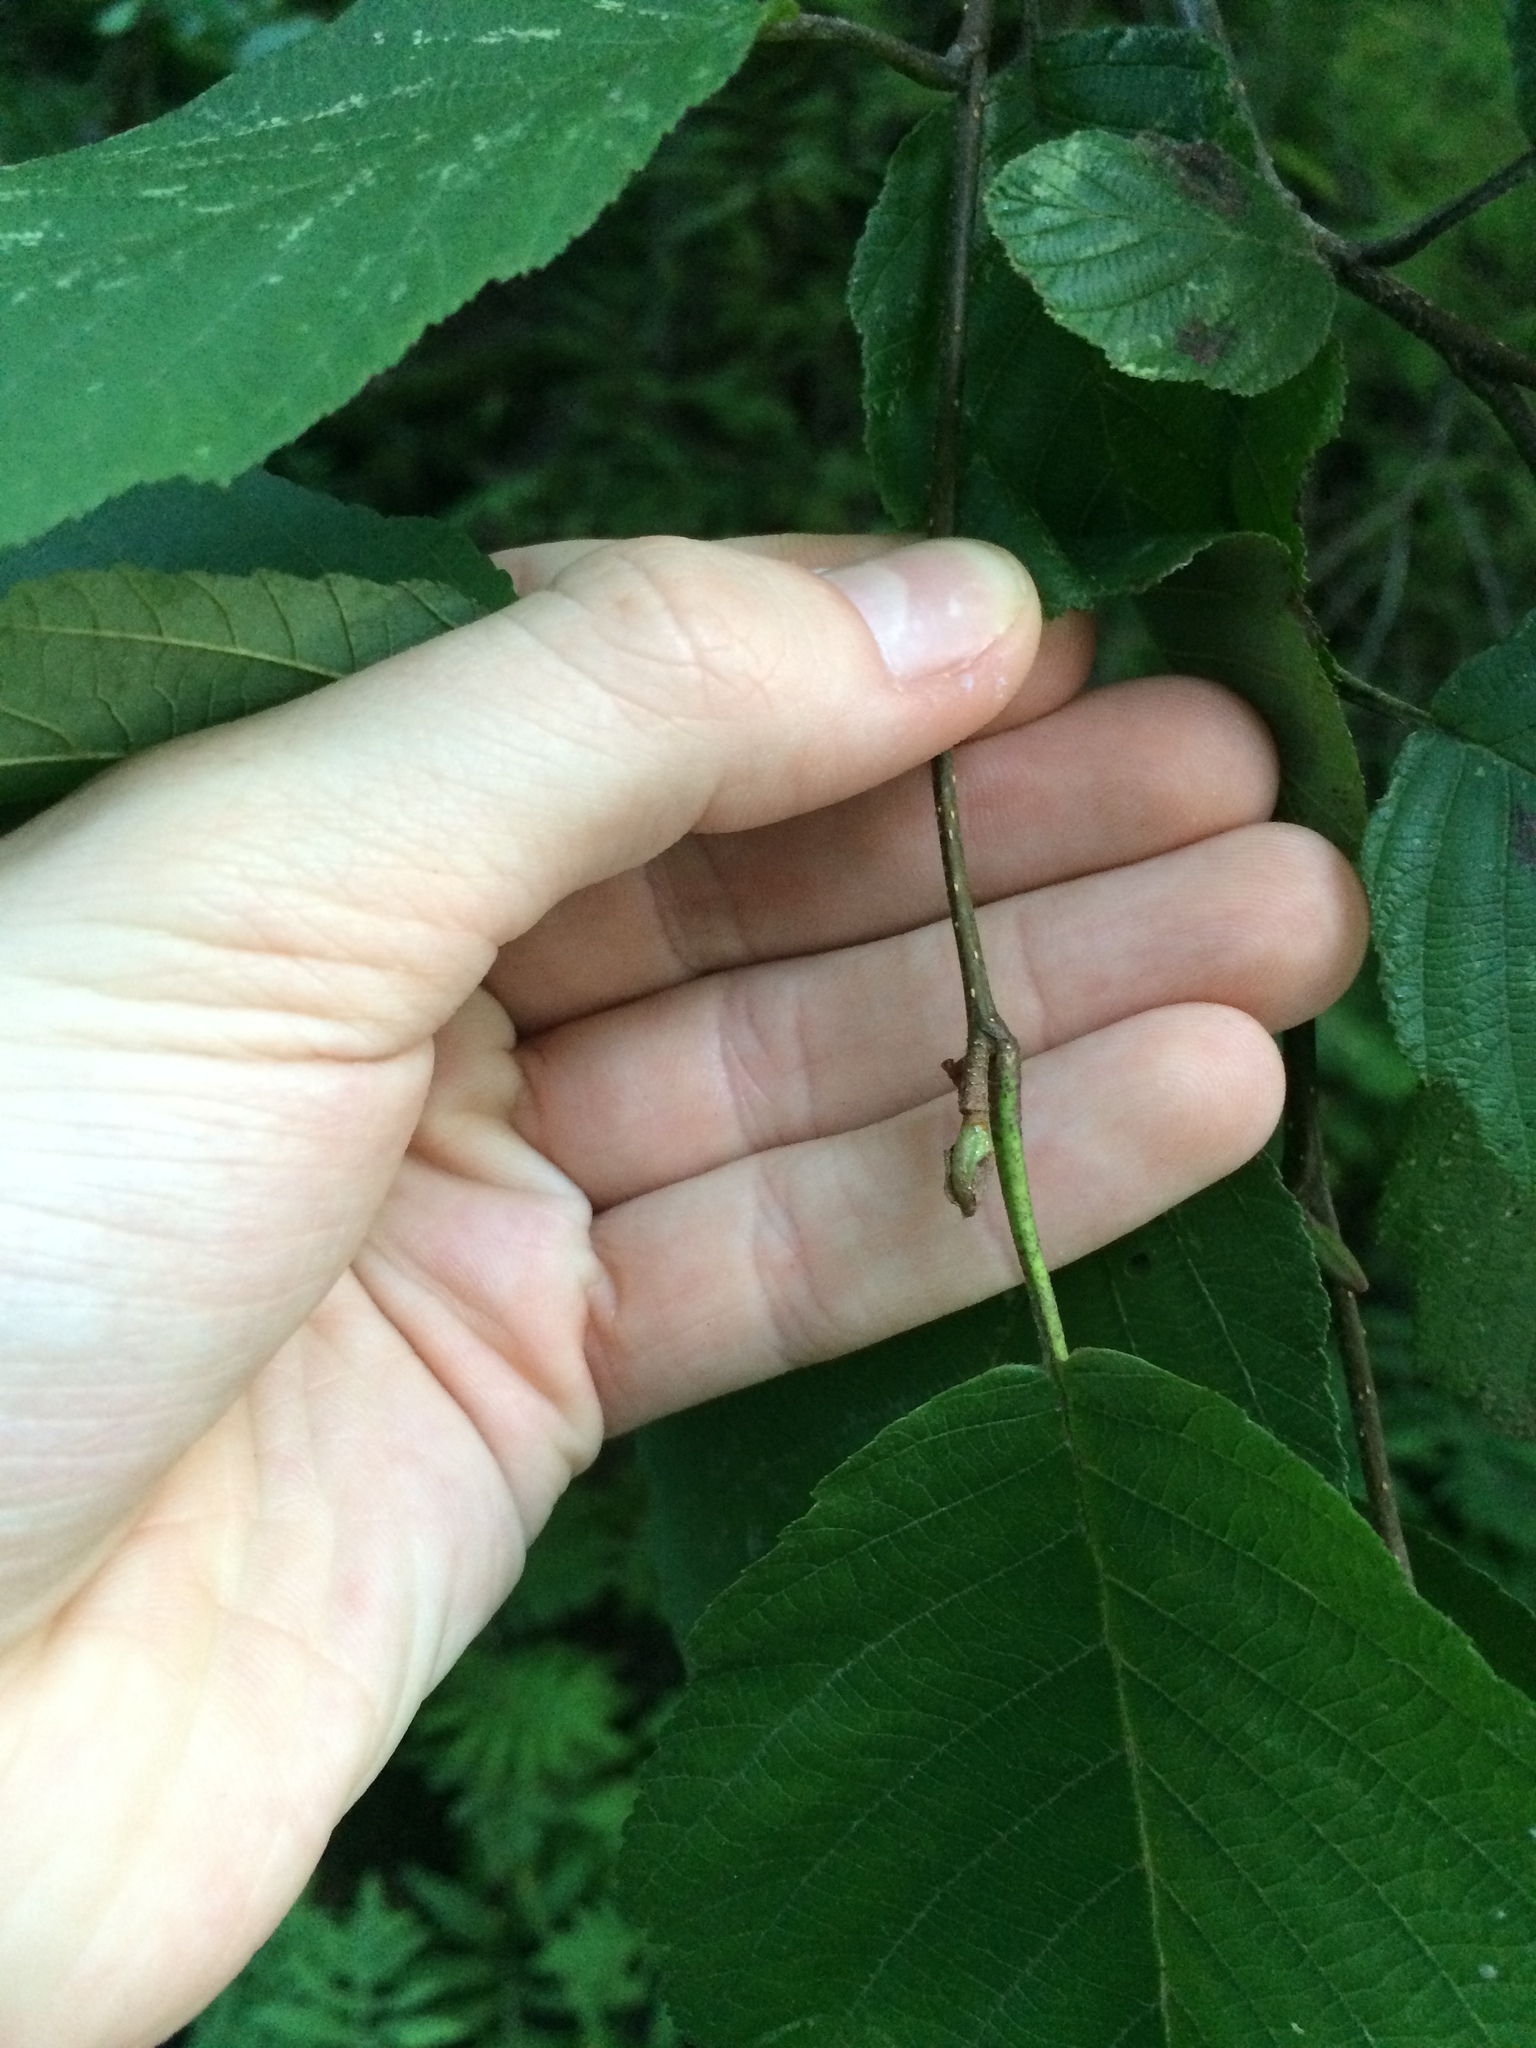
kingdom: Plantae
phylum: Tracheophyta
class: Magnoliopsida
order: Fagales
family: Betulaceae
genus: Alnus
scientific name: Alnus incana
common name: Grey alder
